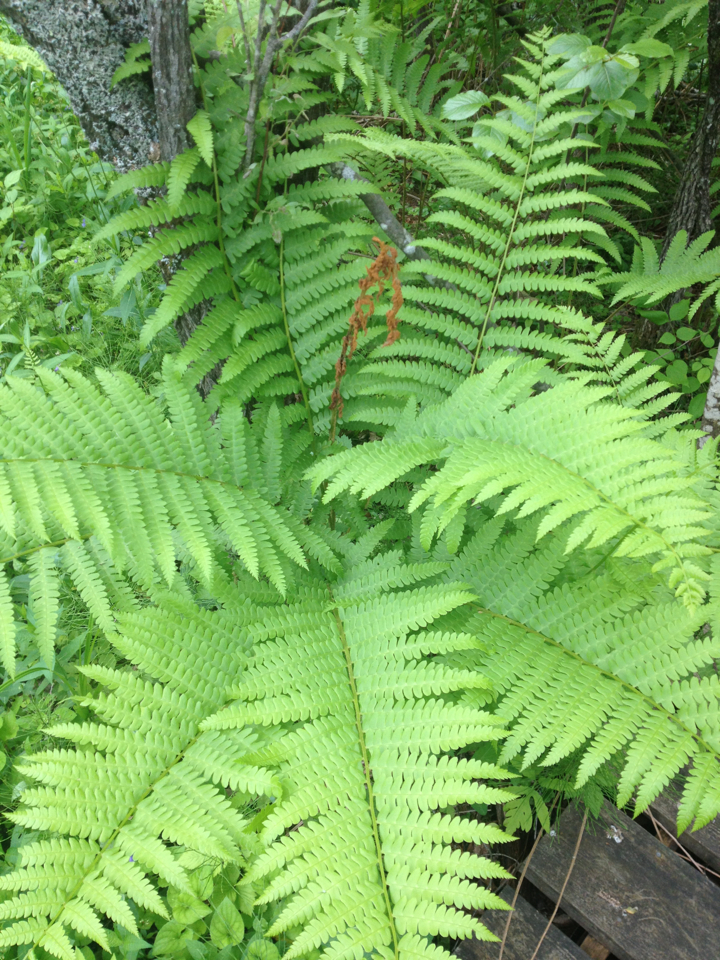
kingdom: Plantae
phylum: Tracheophyta
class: Polypodiopsida
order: Osmundales
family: Osmundaceae
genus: Osmundastrum
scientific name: Osmundastrum cinnamomeum
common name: Cinnamon fern
